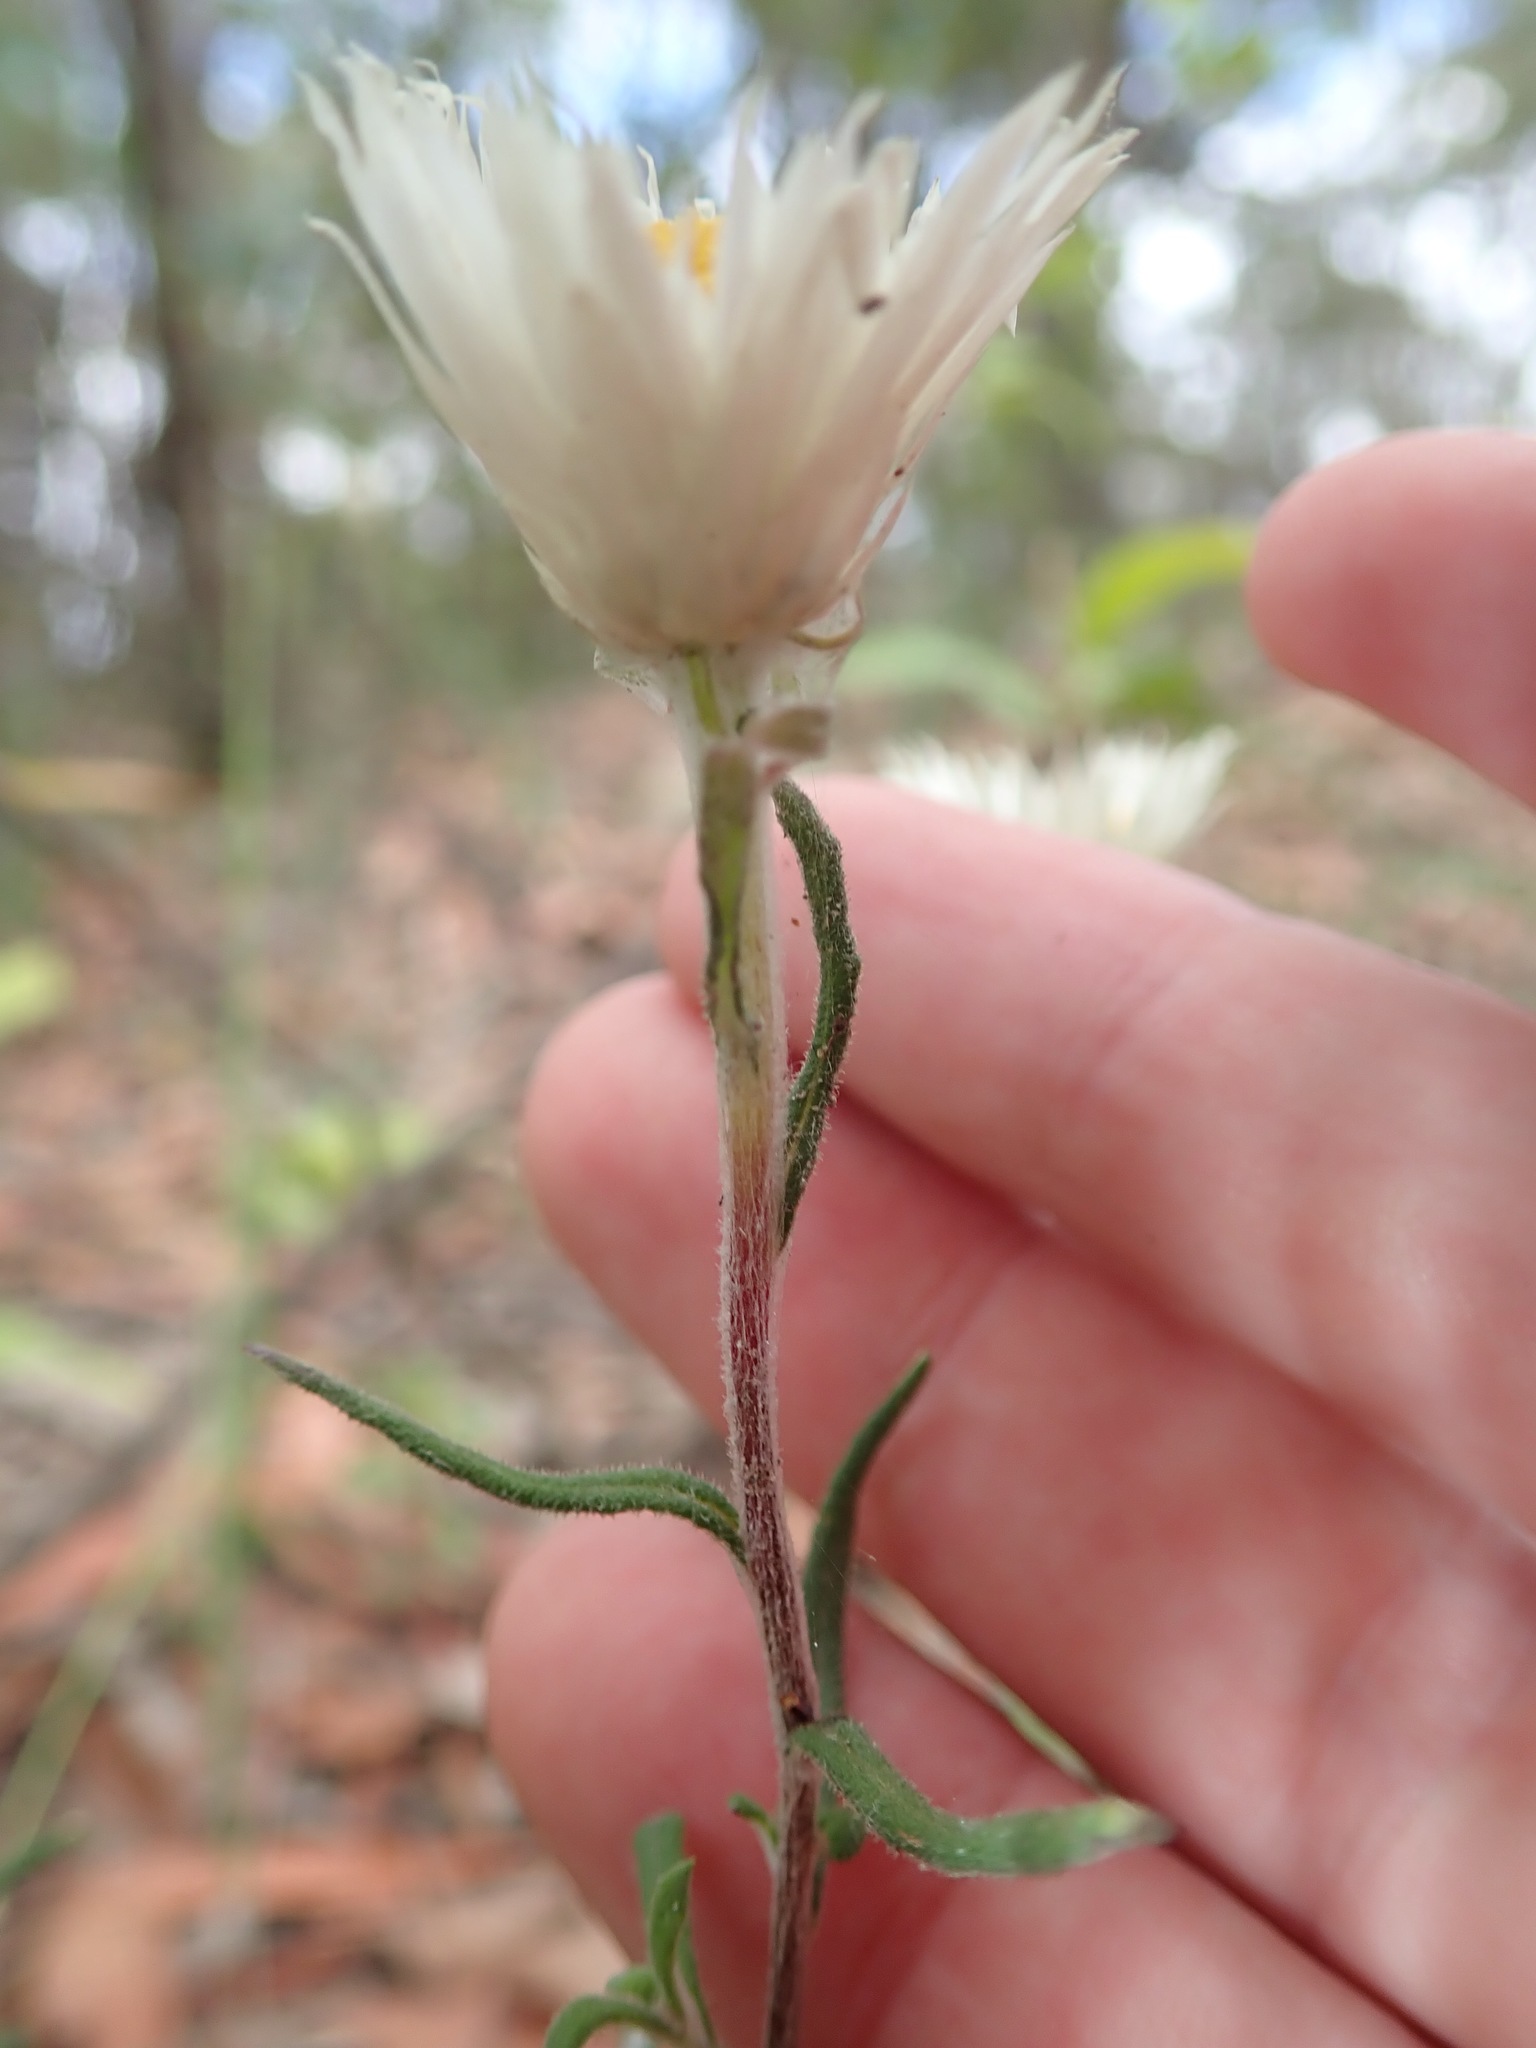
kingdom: Plantae
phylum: Tracheophyta
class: Magnoliopsida
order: Asterales
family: Asteraceae
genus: Helichrysum
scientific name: Helichrysum leucopsideum
